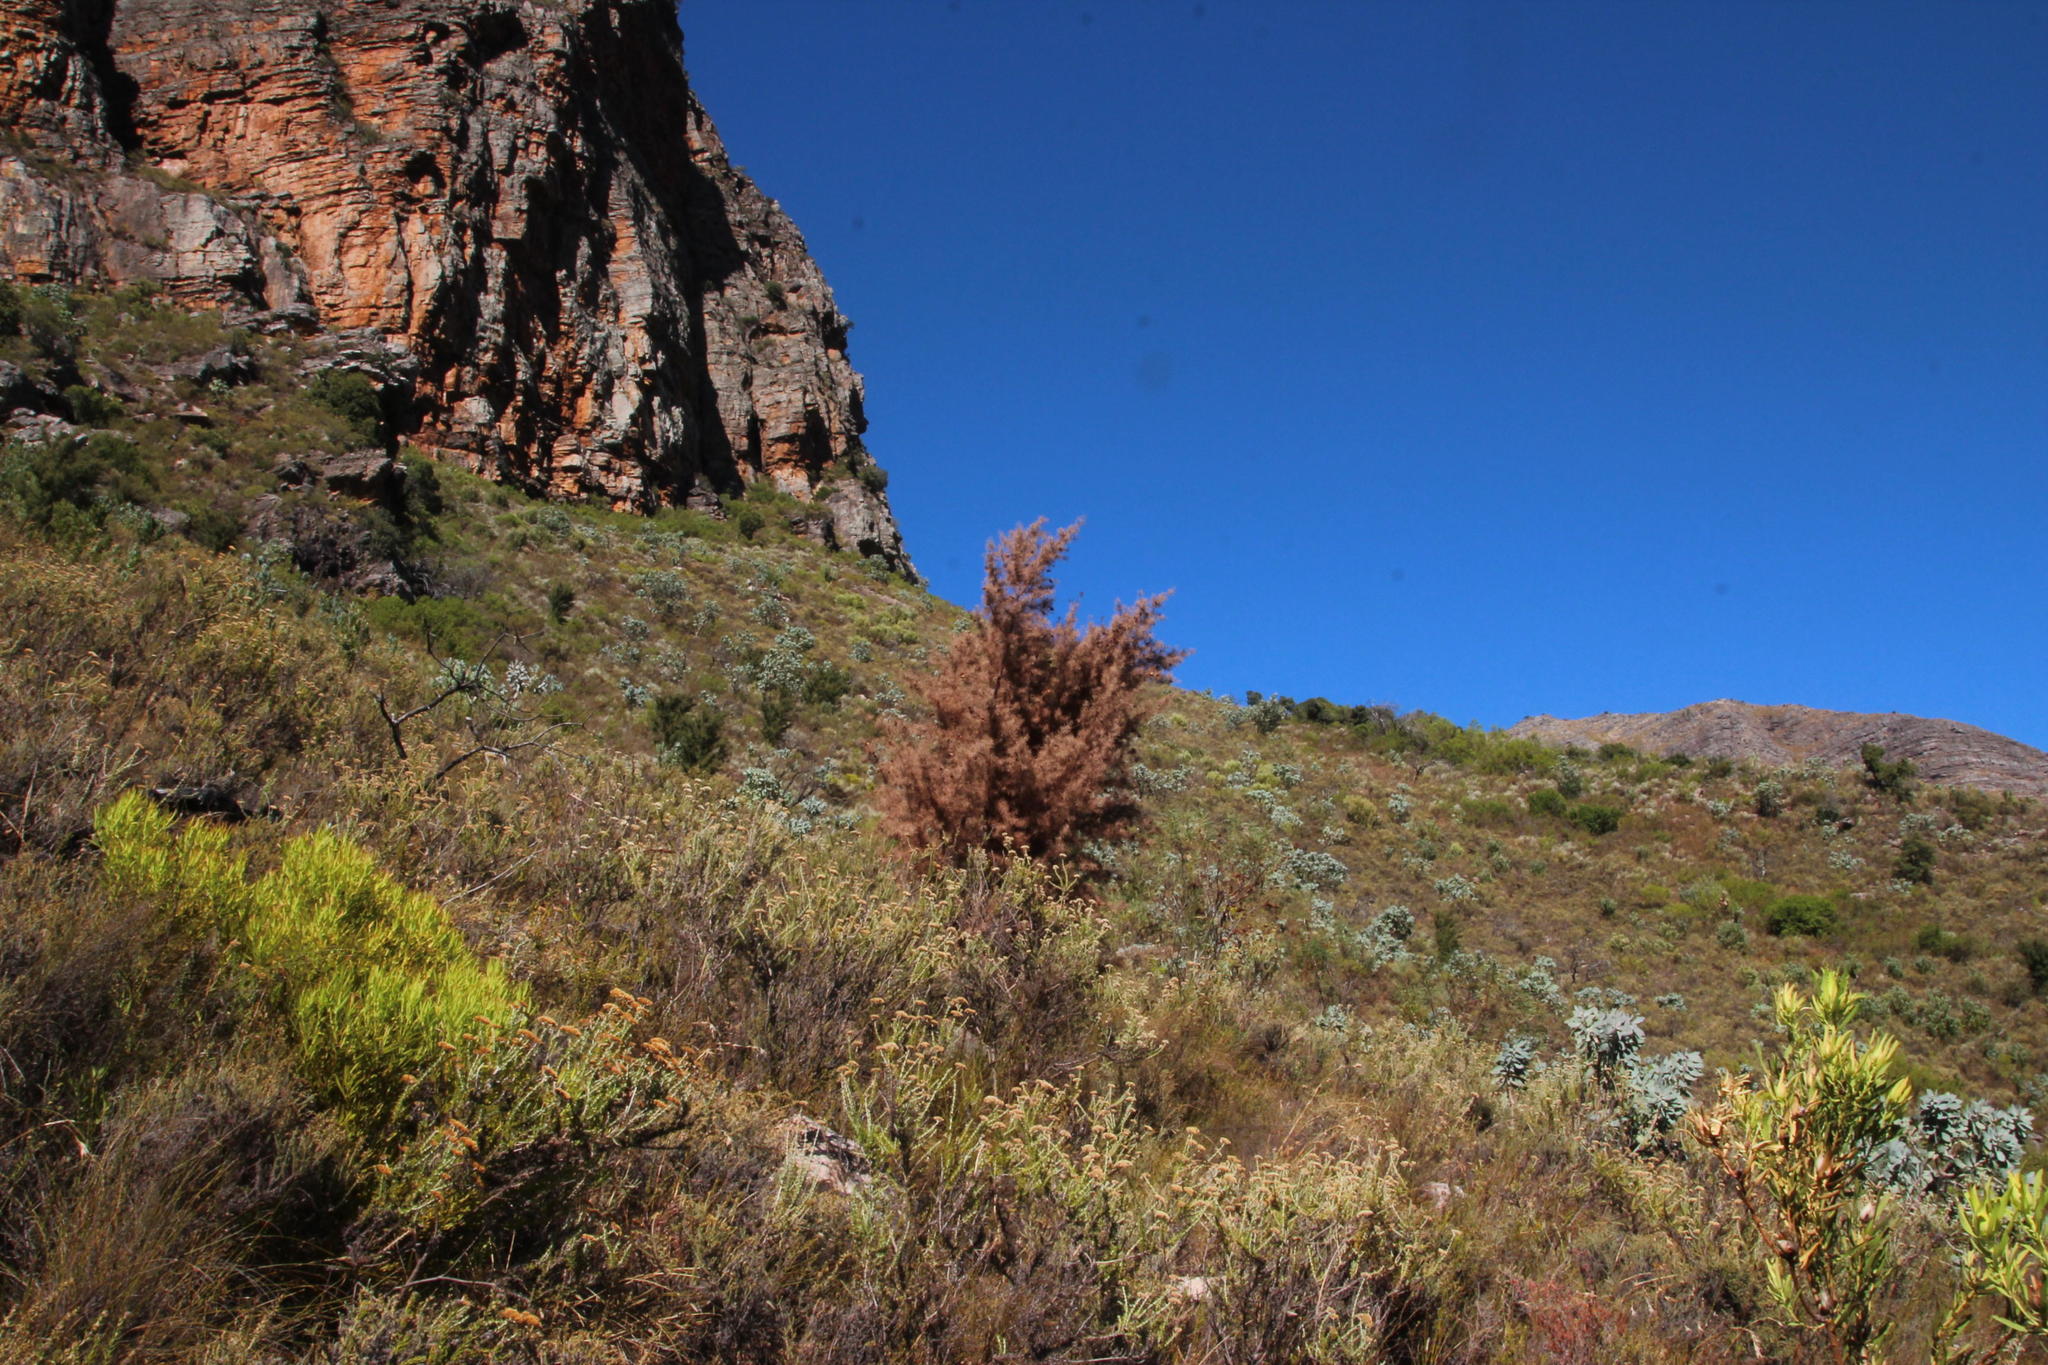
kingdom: Plantae
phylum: Tracheophyta
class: Magnoliopsida
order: Proteales
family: Proteaceae
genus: Hakea
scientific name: Hakea sericea
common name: Needle bush
